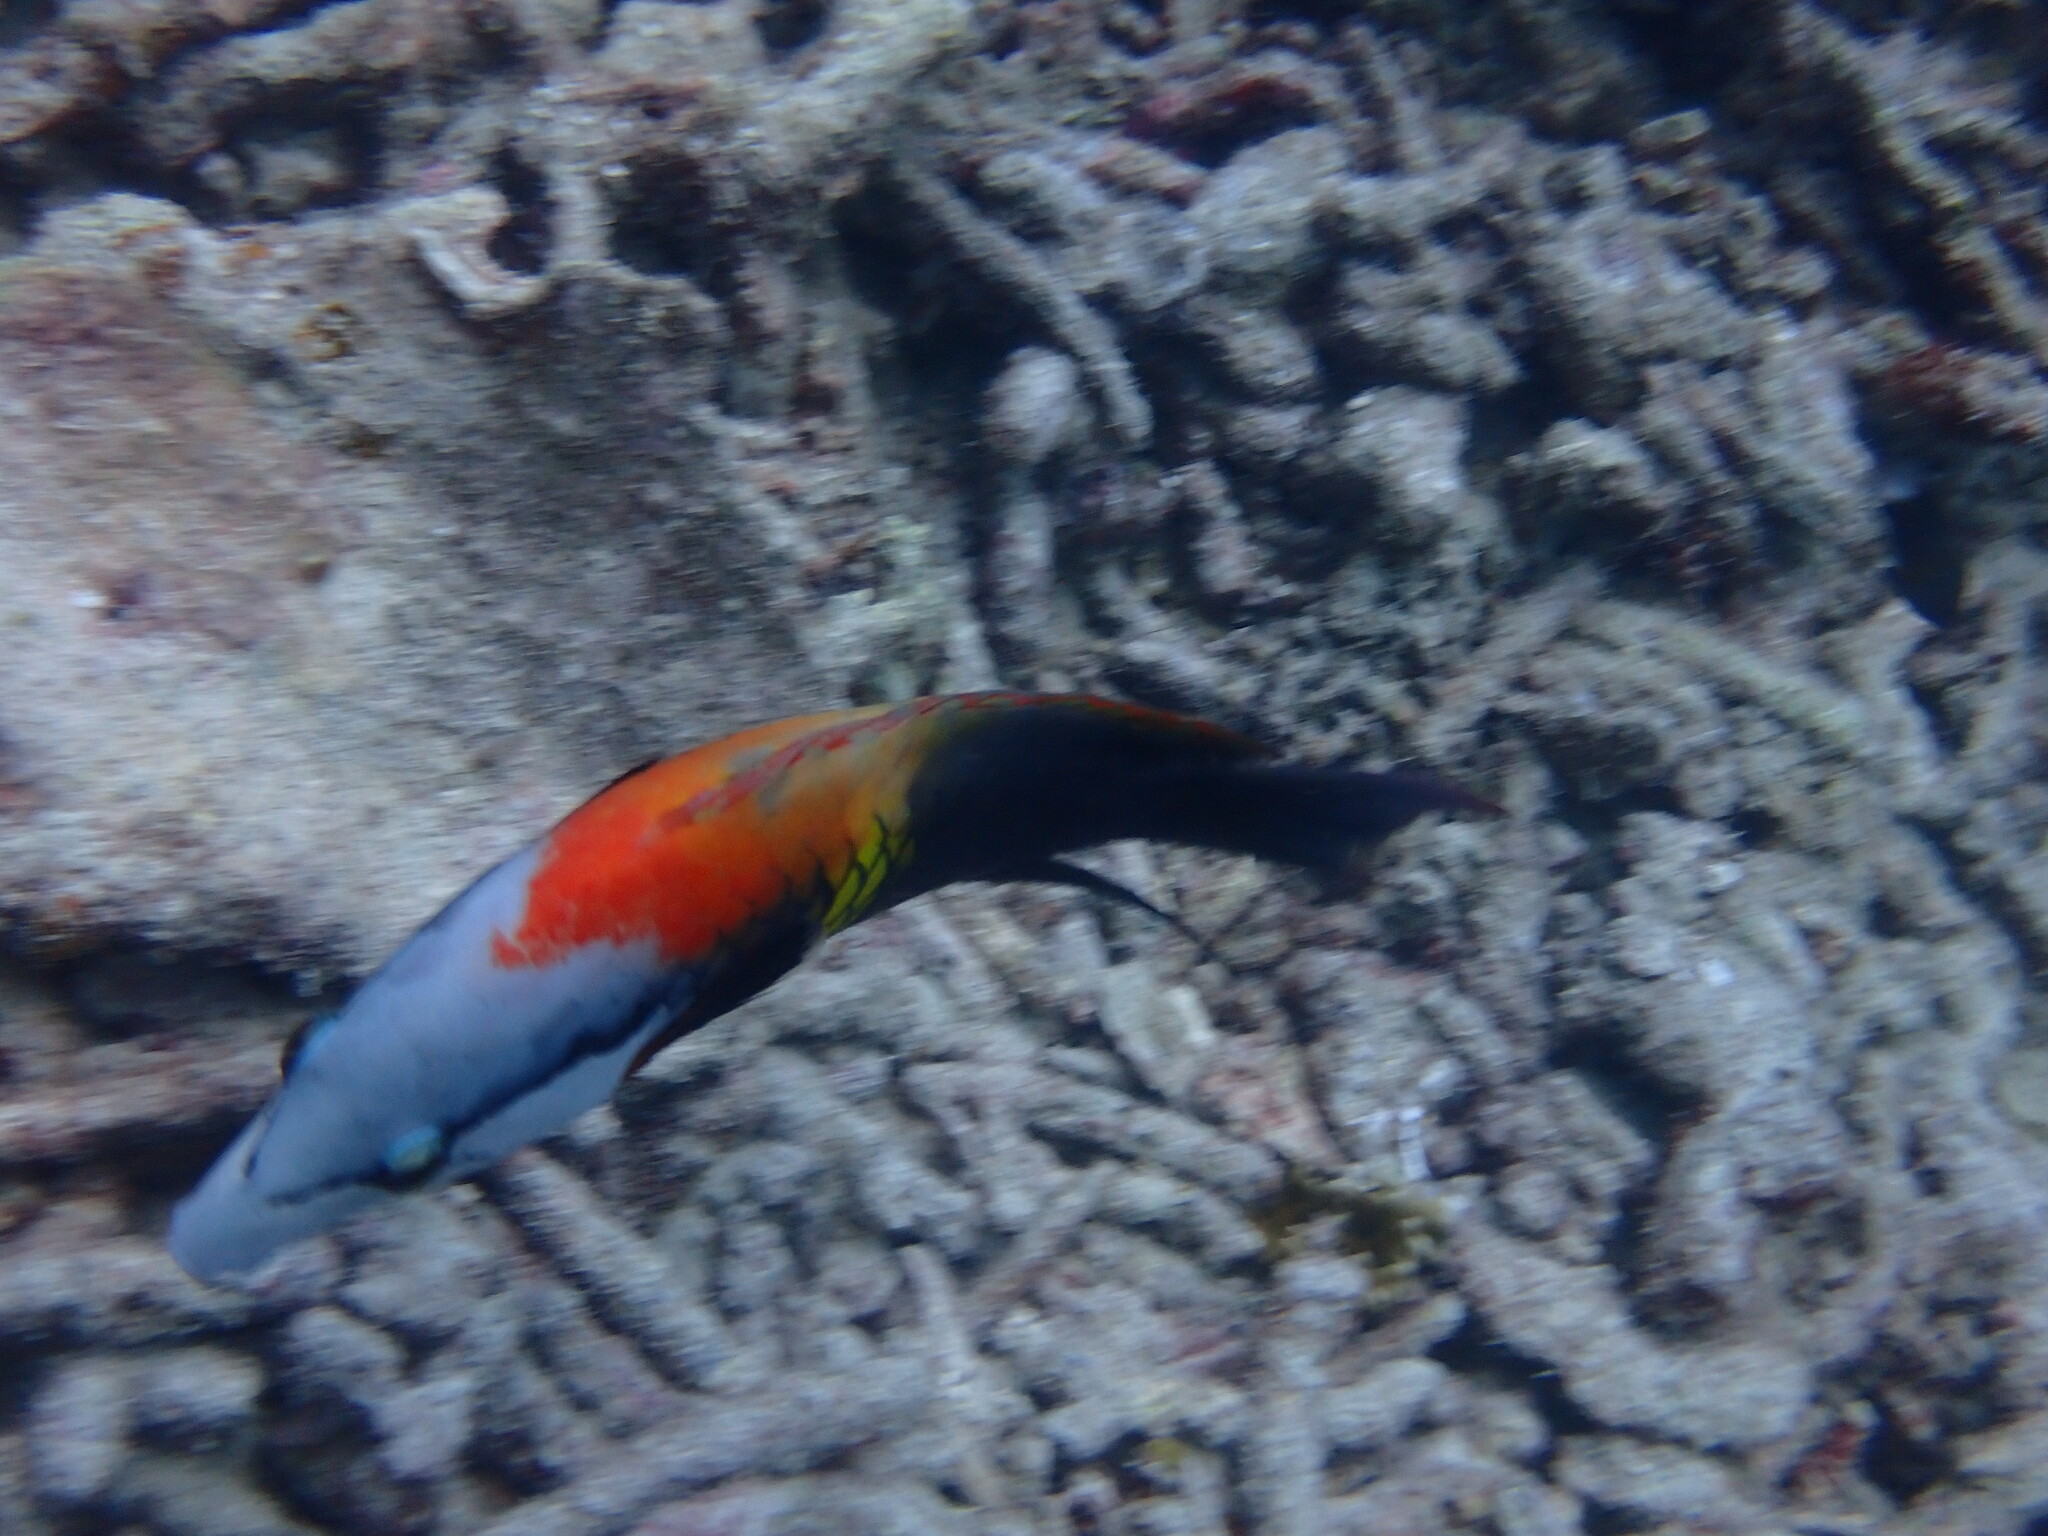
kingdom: Animalia
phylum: Chordata
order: Perciformes
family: Labridae
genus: Epibulus
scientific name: Epibulus insidiator
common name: Slingjaw wrasse
